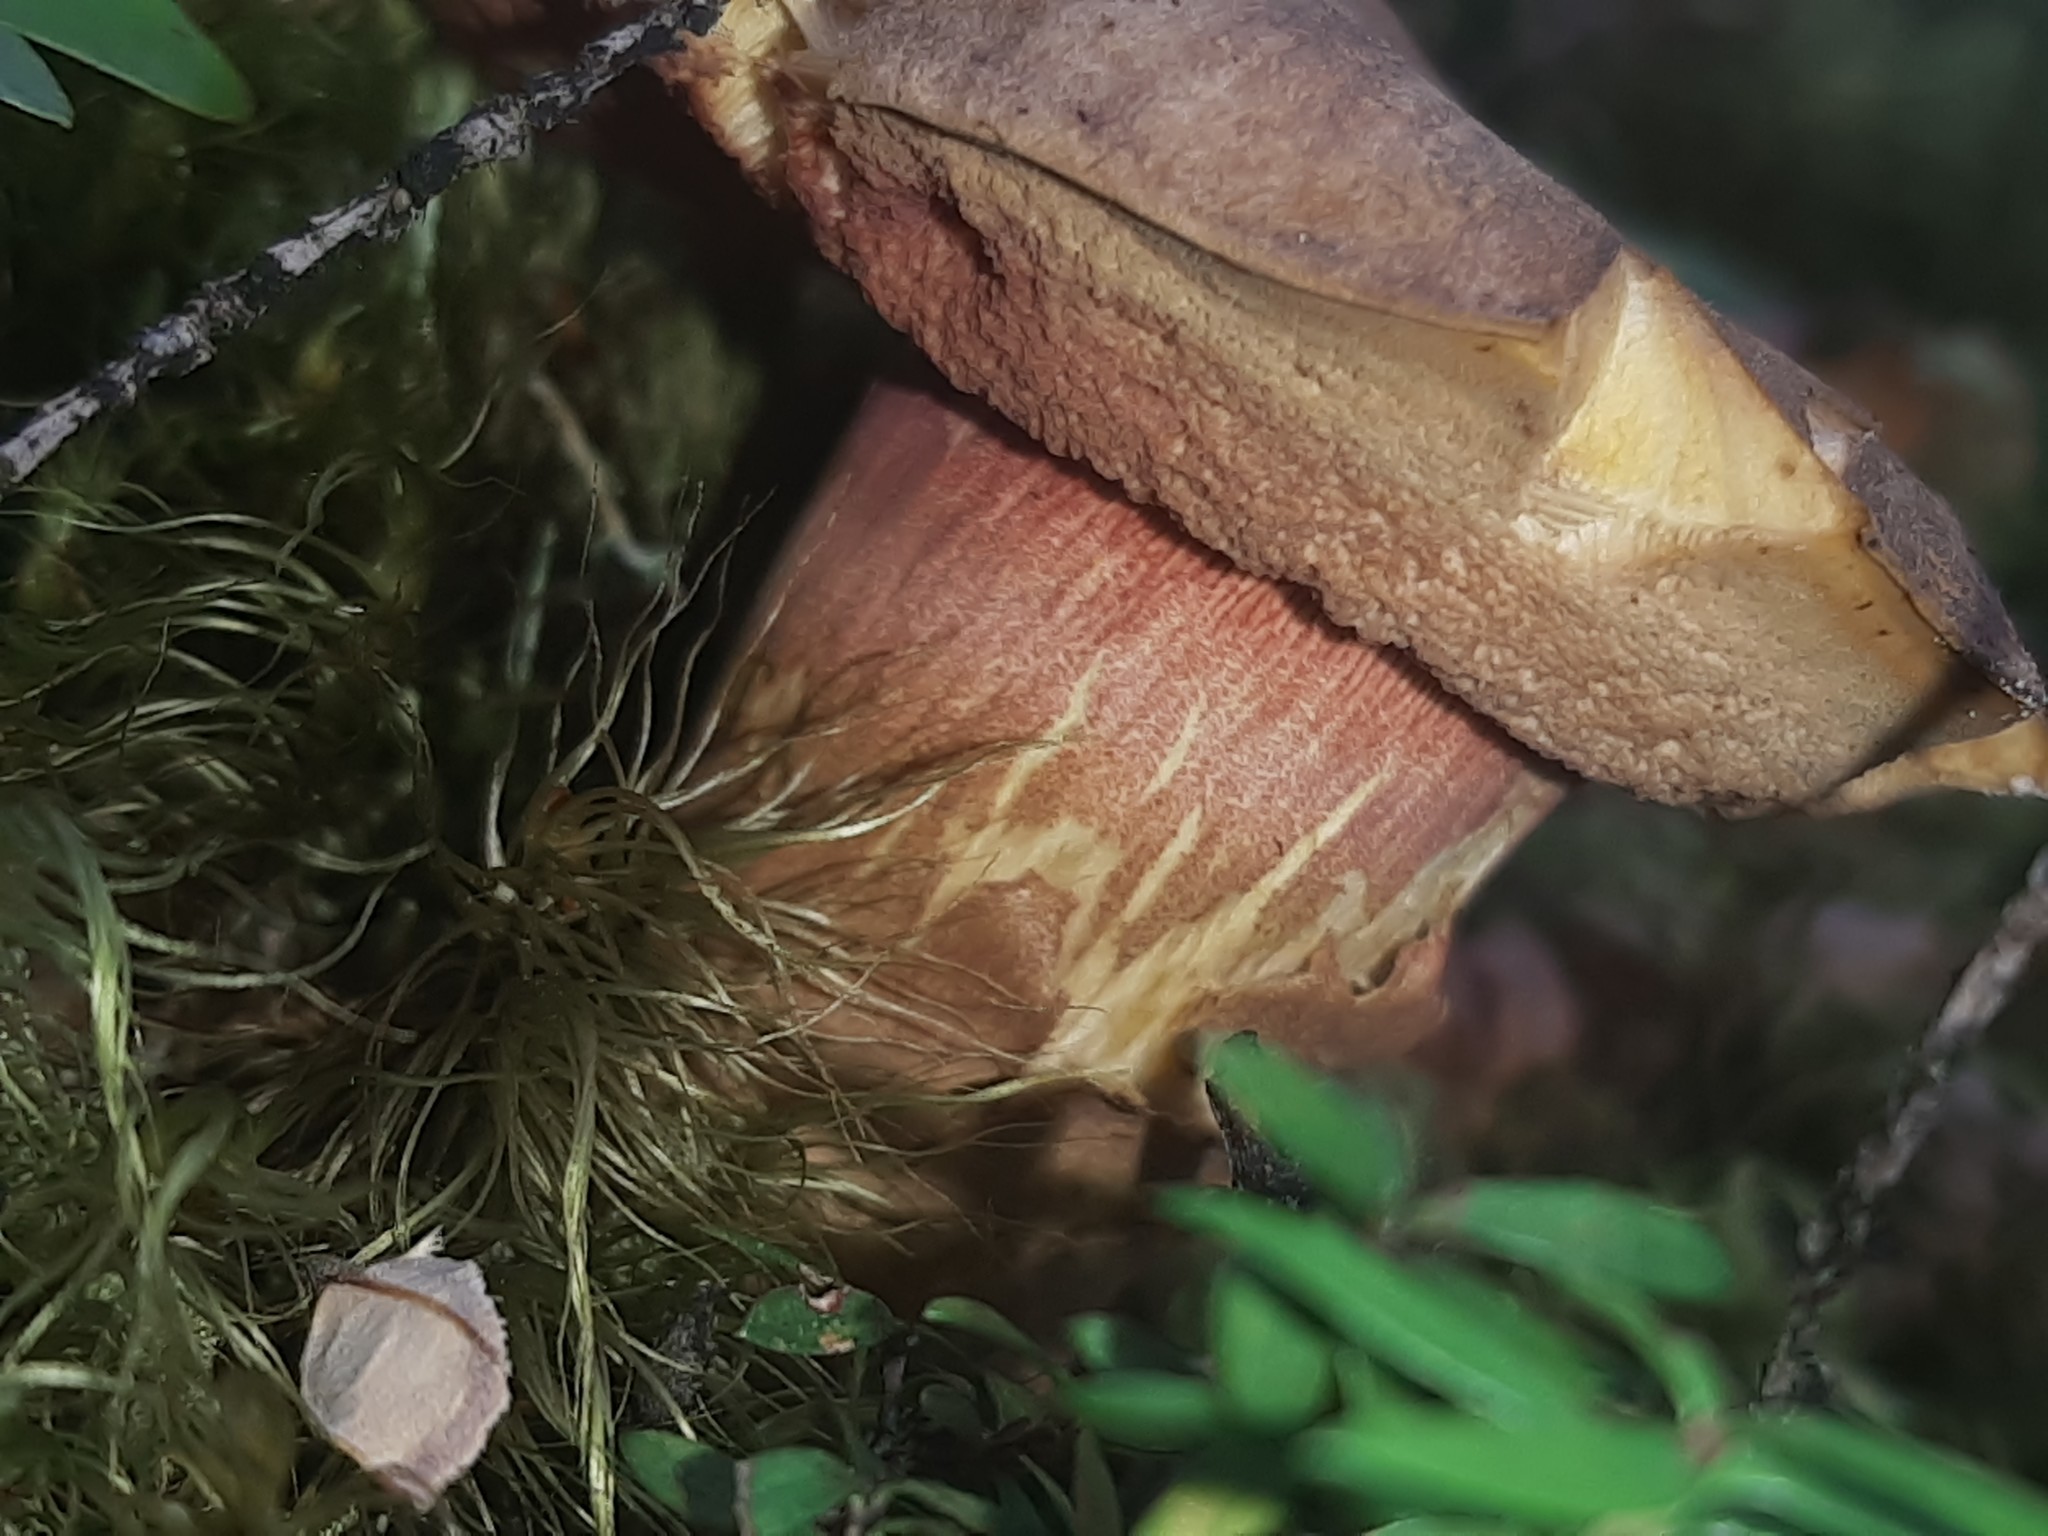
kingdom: Fungi
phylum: Basidiomycota
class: Agaricomycetes
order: Boletales
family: Boletaceae
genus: Xerocomus
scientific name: Xerocomus nothofagi
